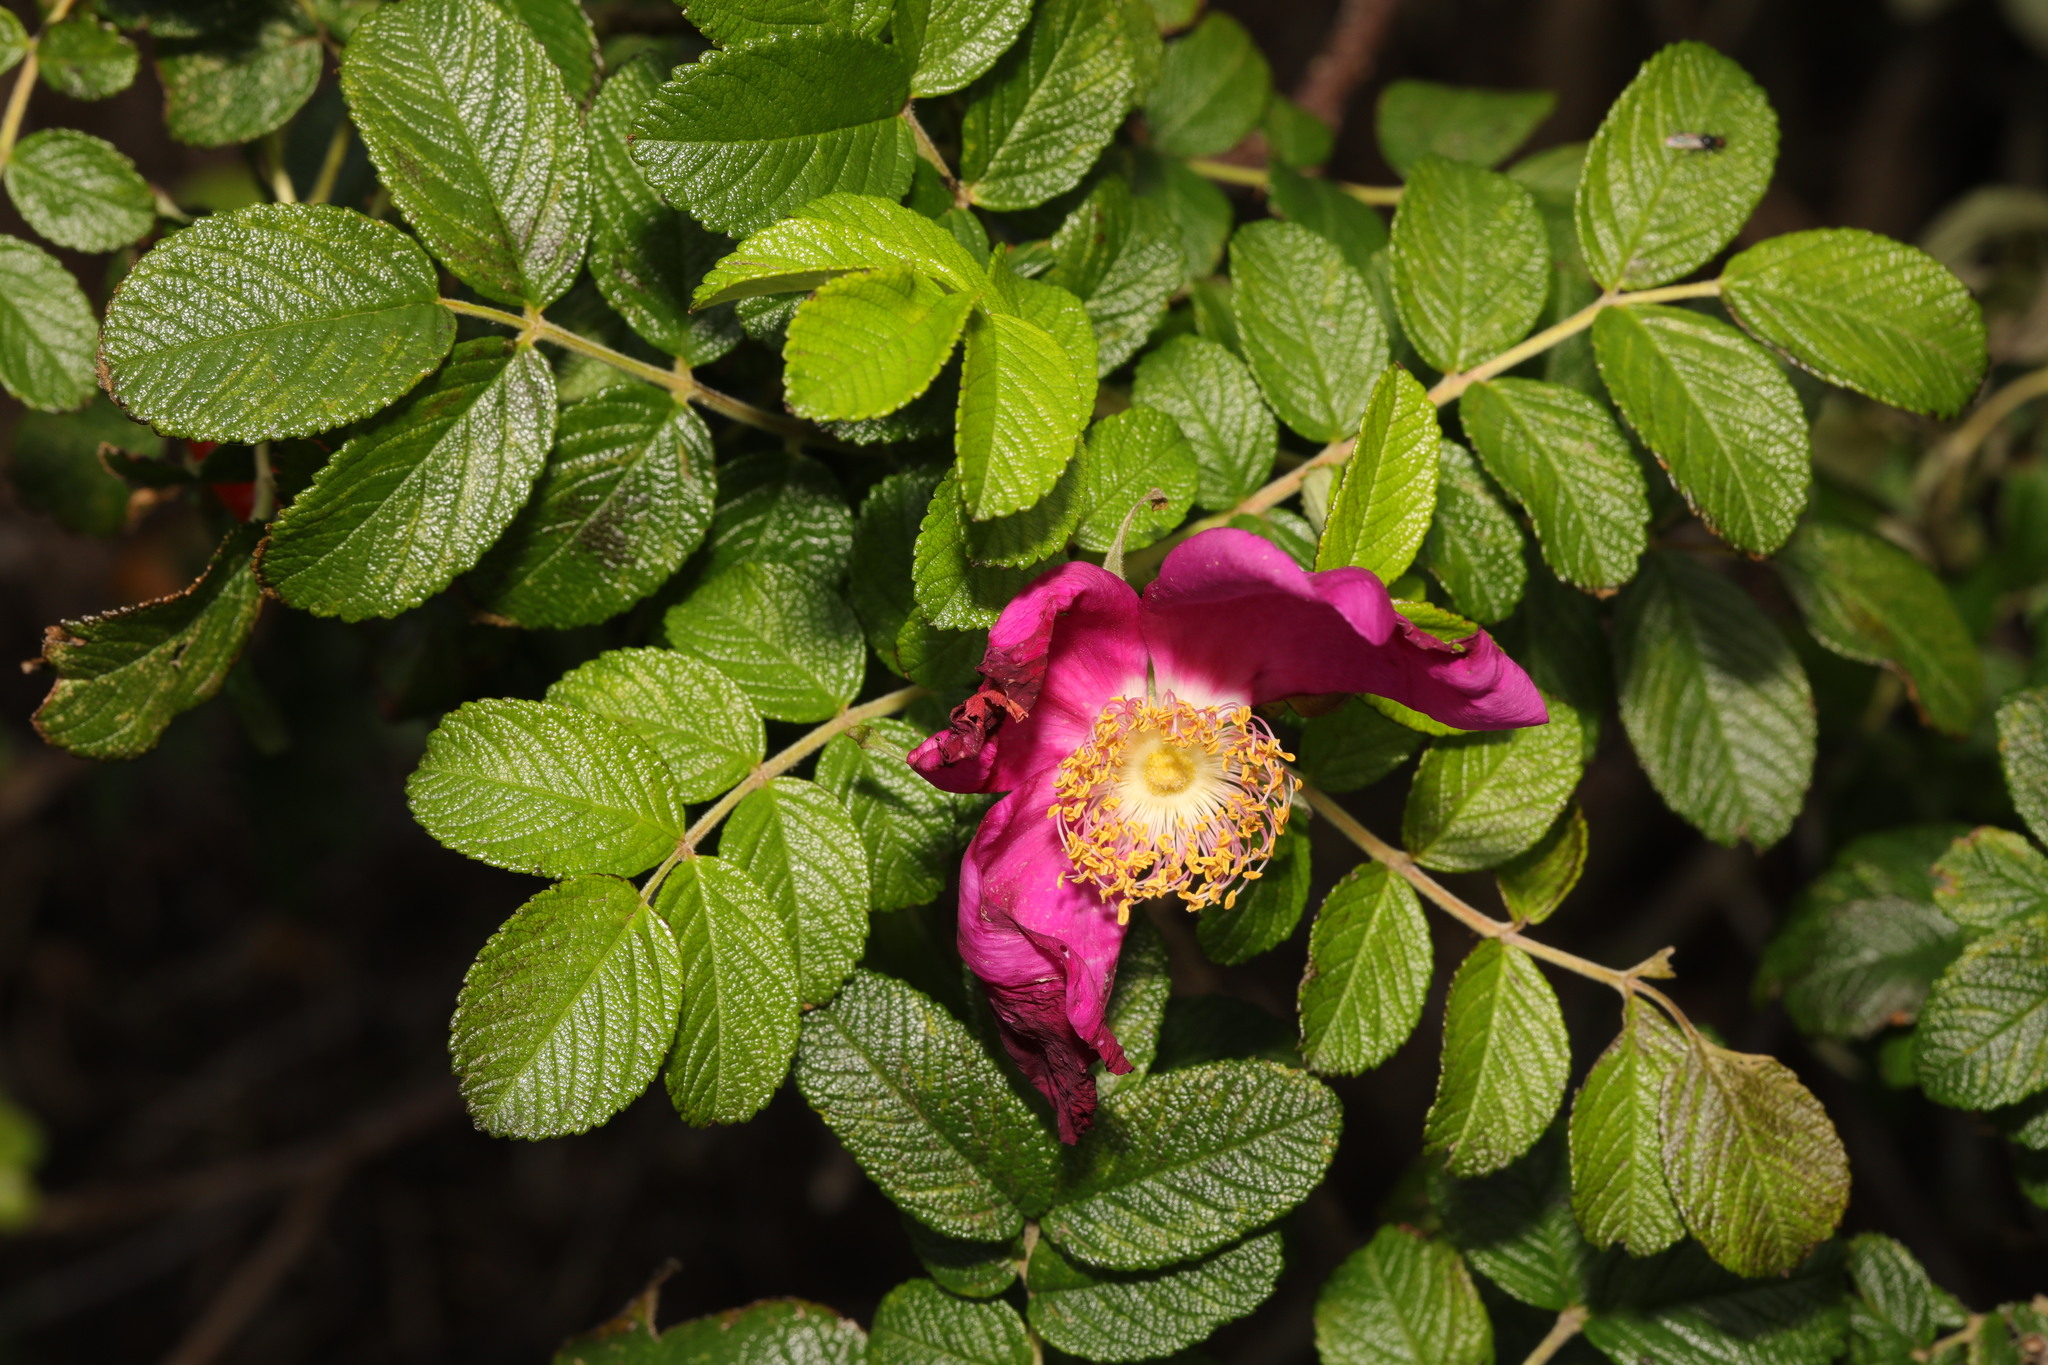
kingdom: Plantae
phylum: Tracheophyta
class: Magnoliopsida
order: Rosales
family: Rosaceae
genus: Rosa
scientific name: Rosa rugosa
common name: Japanese rose
